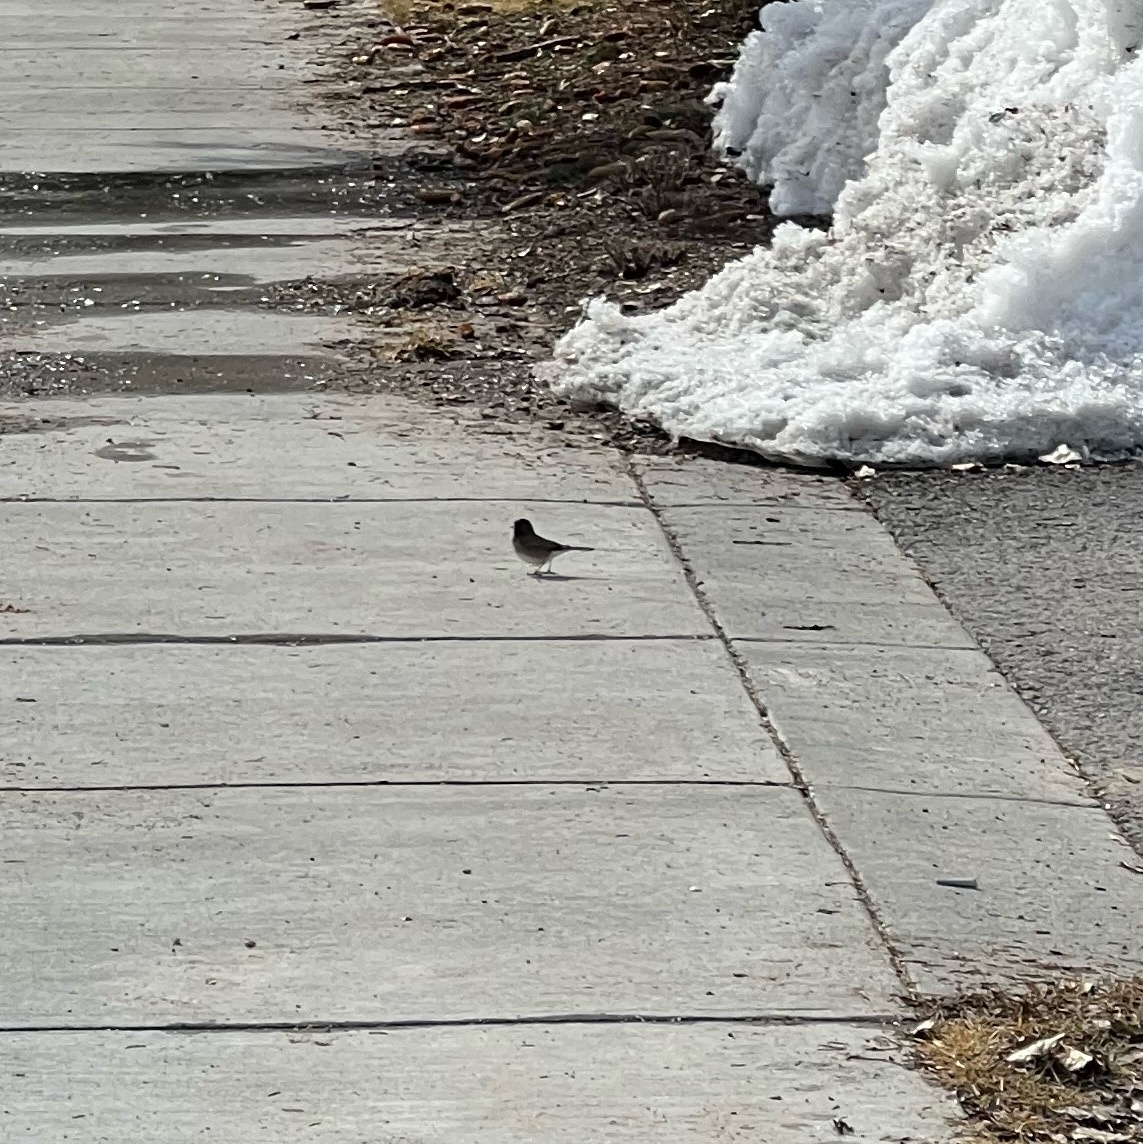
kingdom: Animalia
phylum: Chordata
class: Aves
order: Passeriformes
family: Passerellidae
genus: Junco
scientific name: Junco hyemalis
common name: Dark-eyed junco
